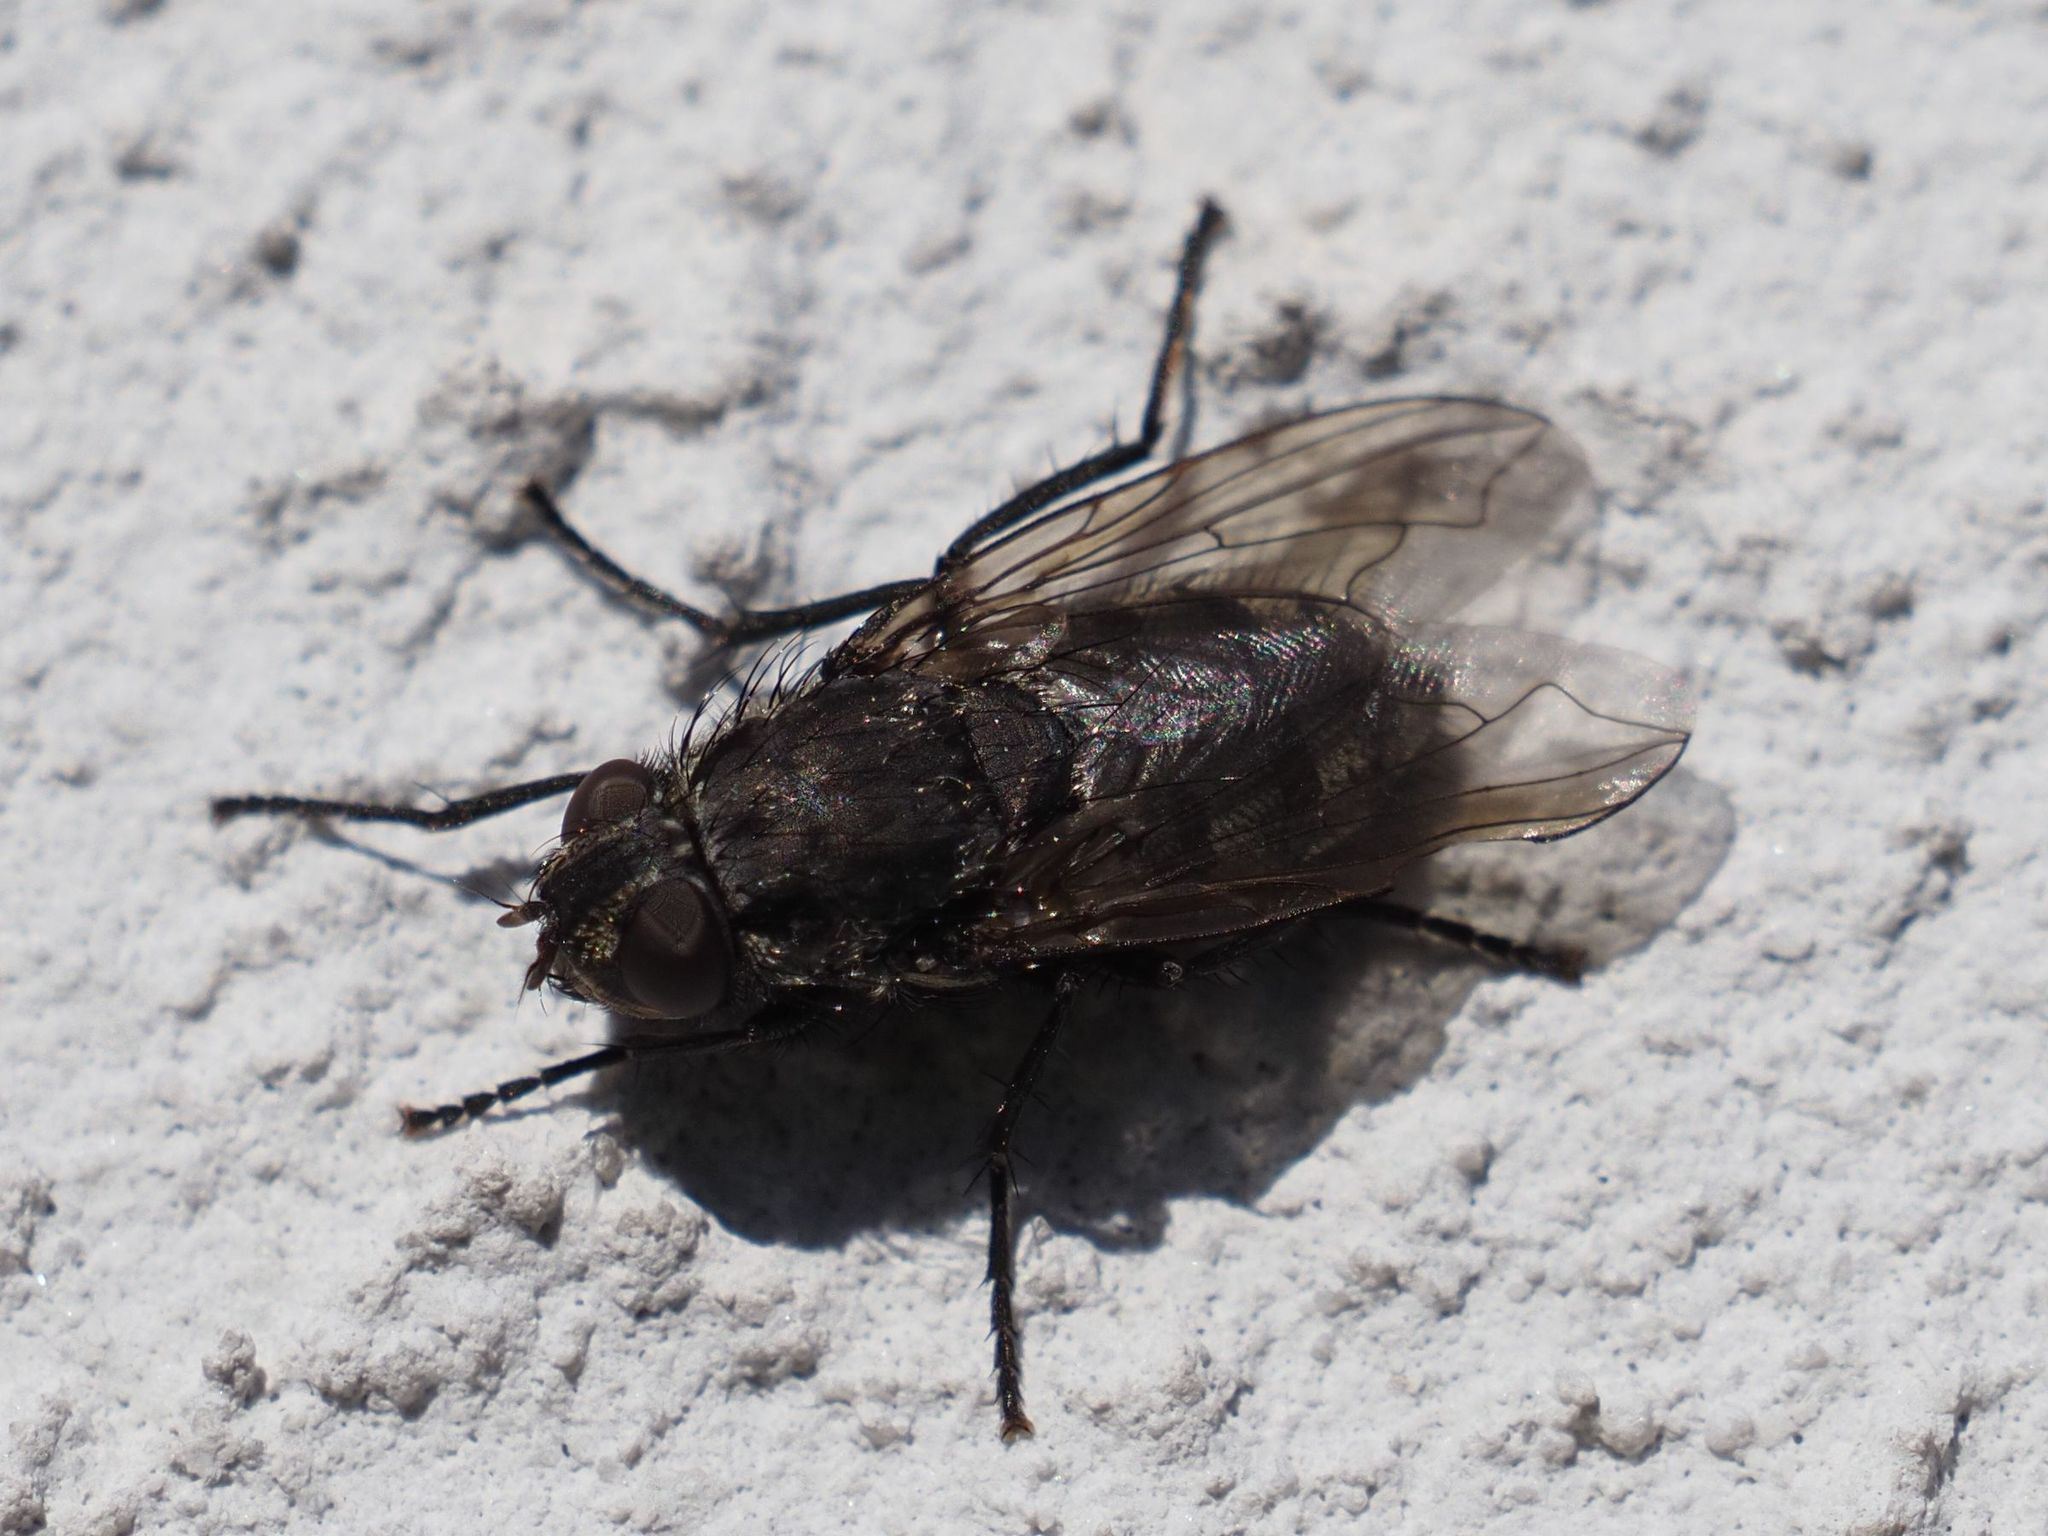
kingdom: Animalia
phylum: Arthropoda
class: Insecta
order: Diptera
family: Polleniidae
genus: Pollenia
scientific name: Pollenia vagabunda
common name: Vagabund cluster fly
